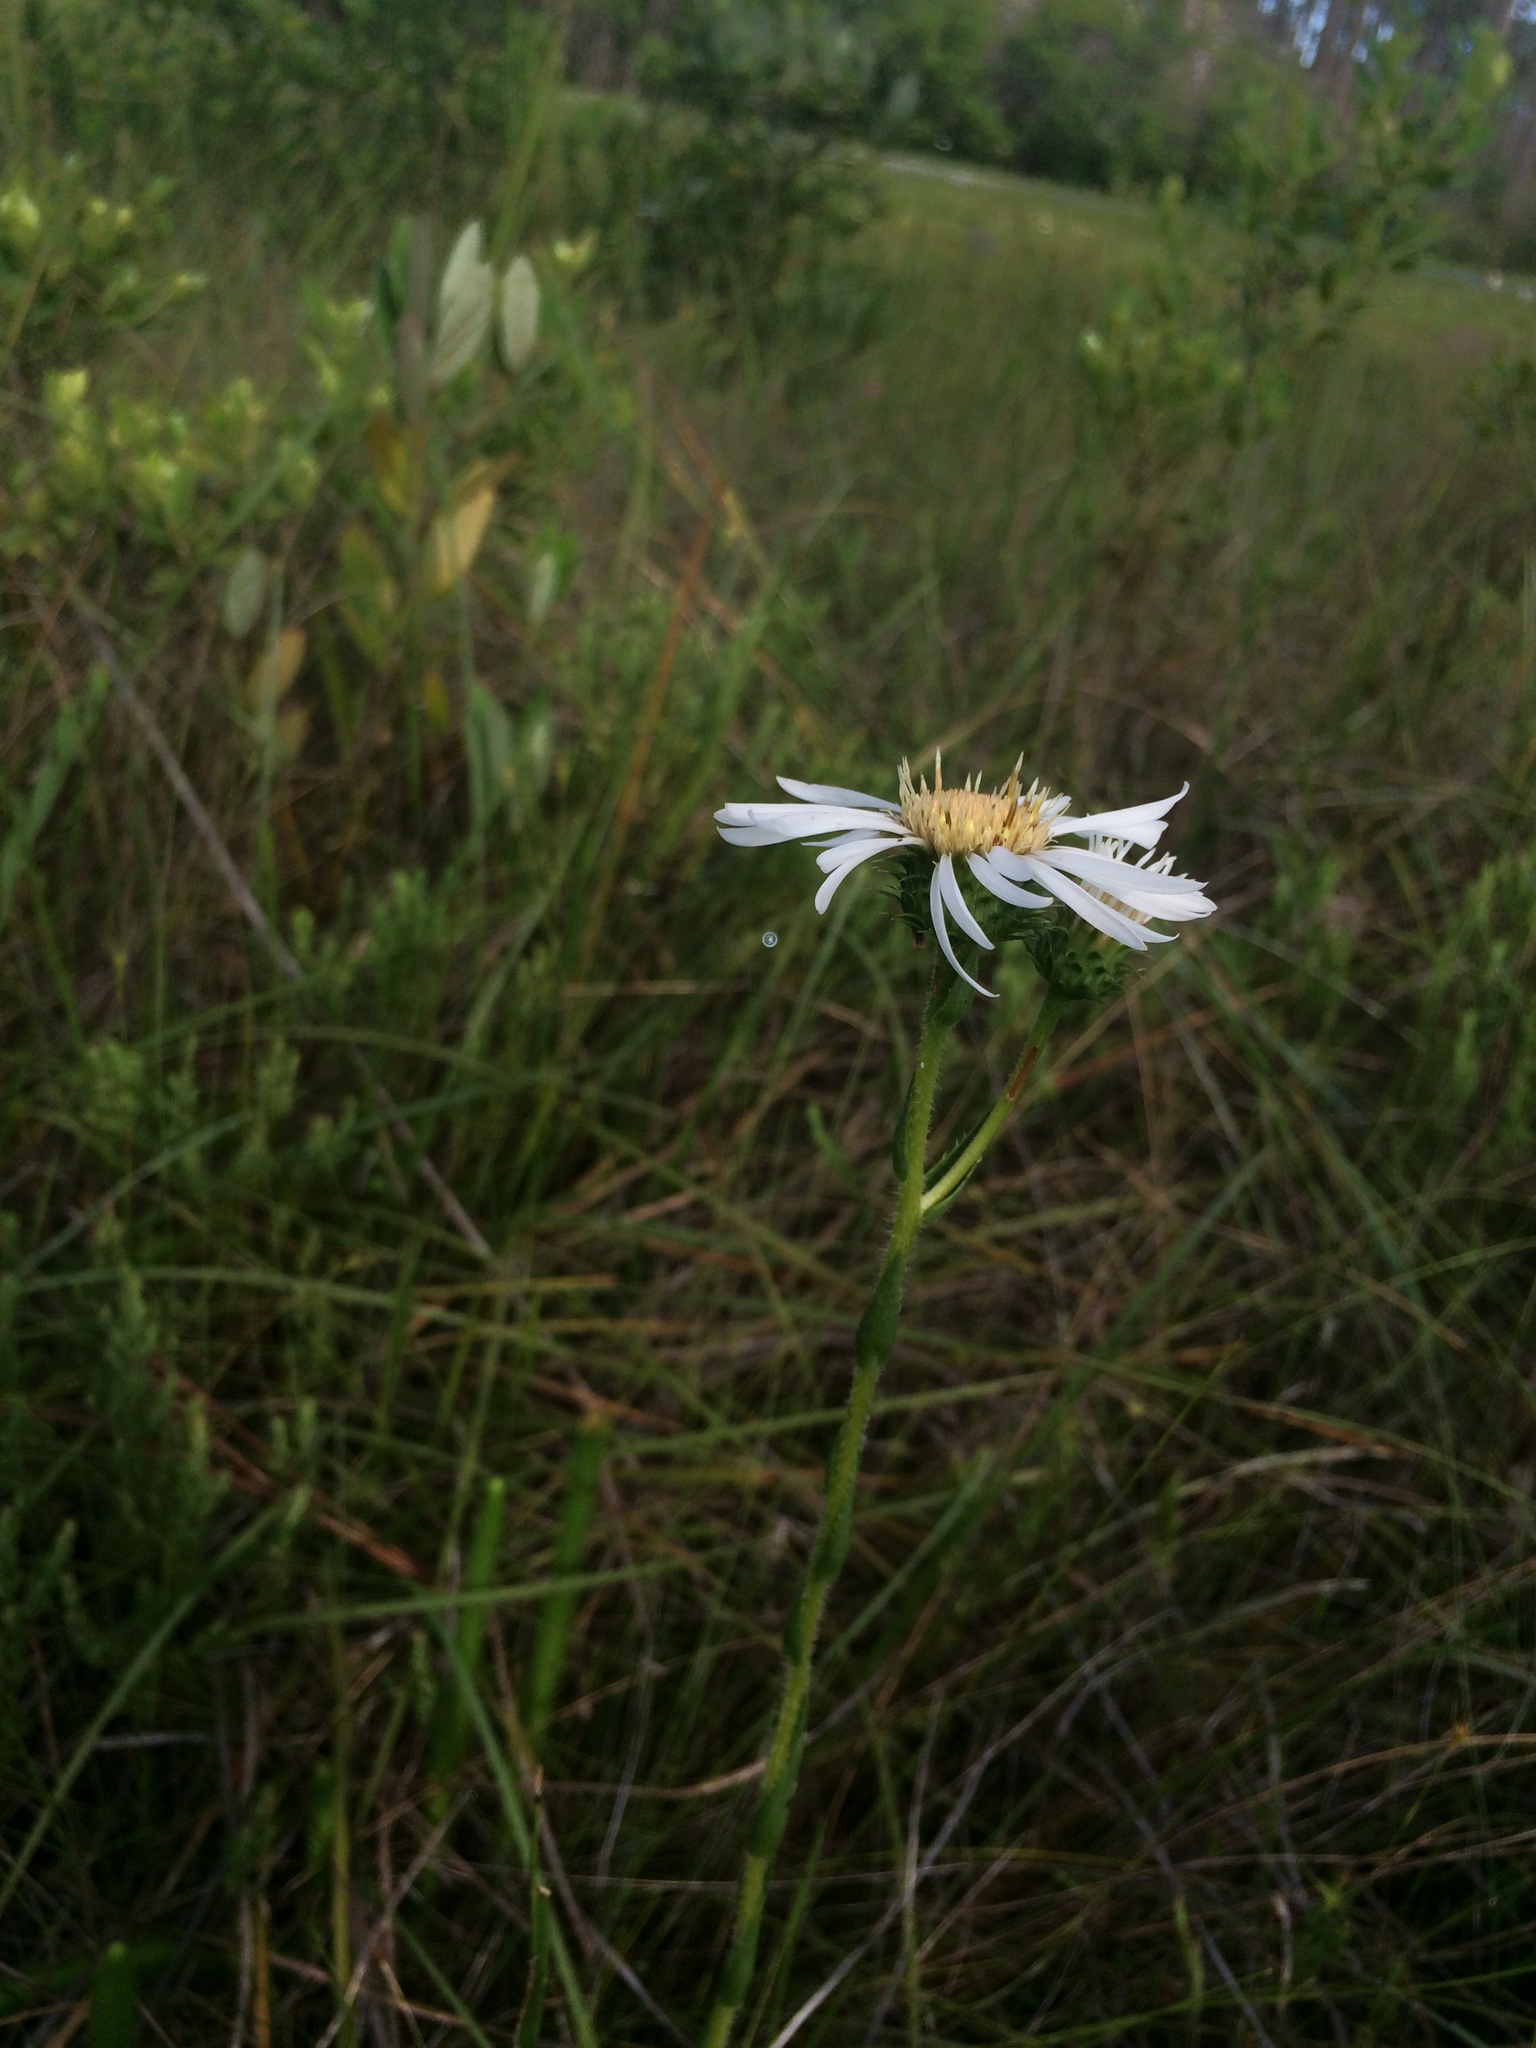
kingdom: Plantae
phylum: Tracheophyta
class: Magnoliopsida
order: Asterales
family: Asteraceae
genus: Eurybia
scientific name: Eurybia eryngiifolia
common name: Thistle-leaf aster
